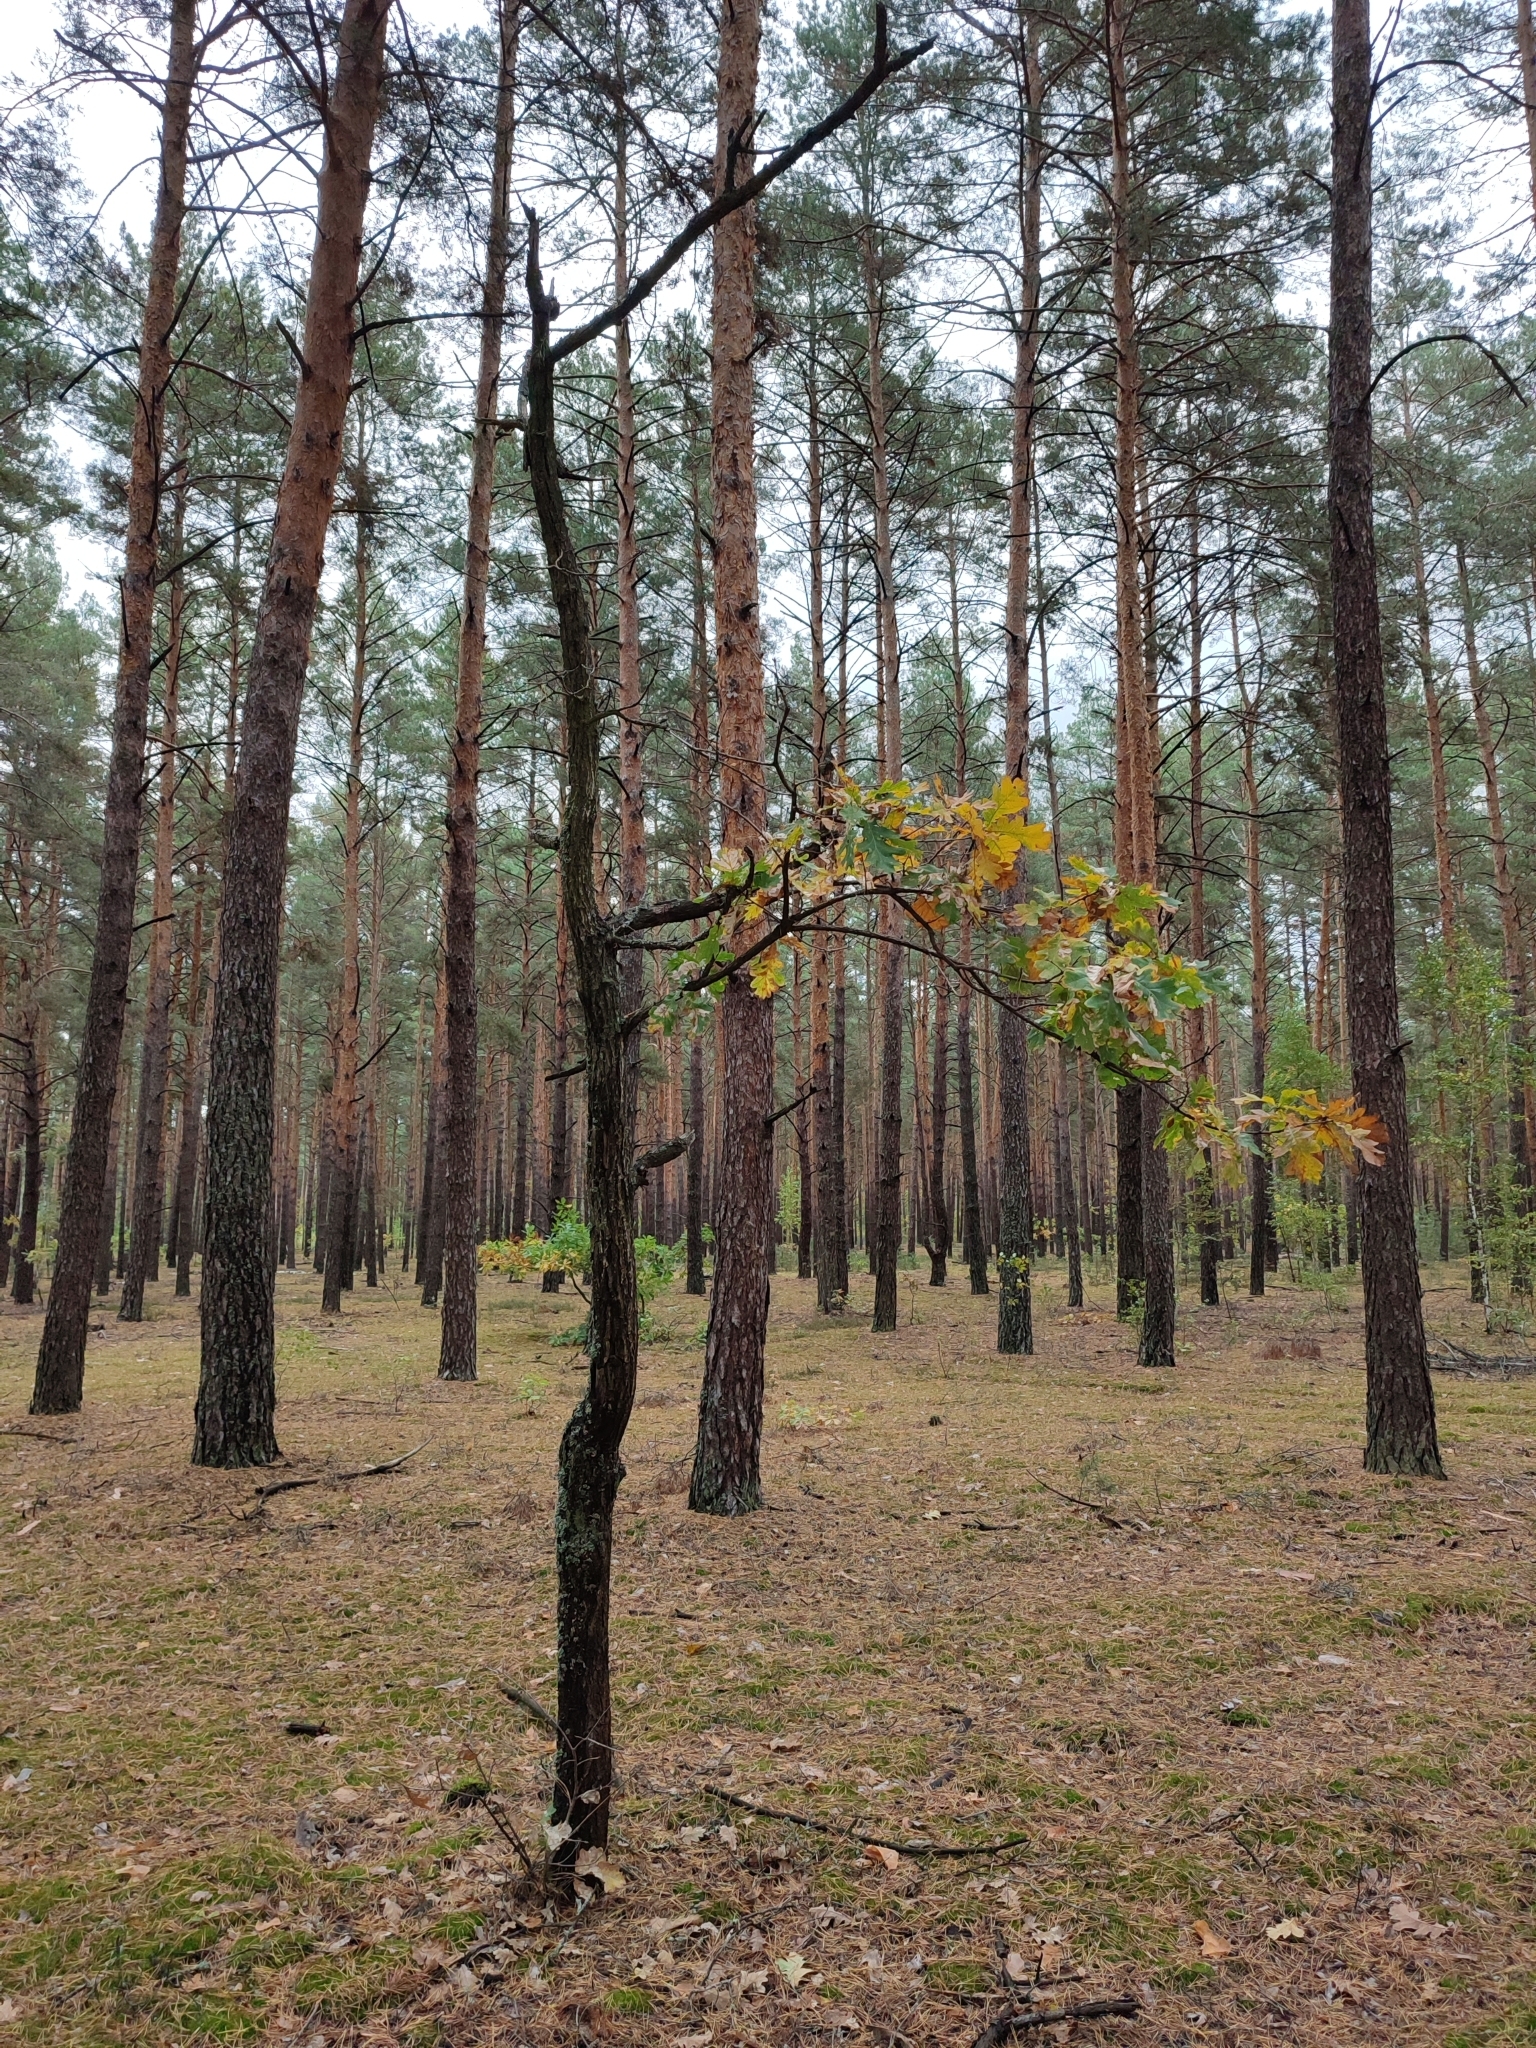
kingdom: Plantae
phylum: Tracheophyta
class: Magnoliopsida
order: Fagales
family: Fagaceae
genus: Quercus
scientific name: Quercus robur
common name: Pedunculate oak
